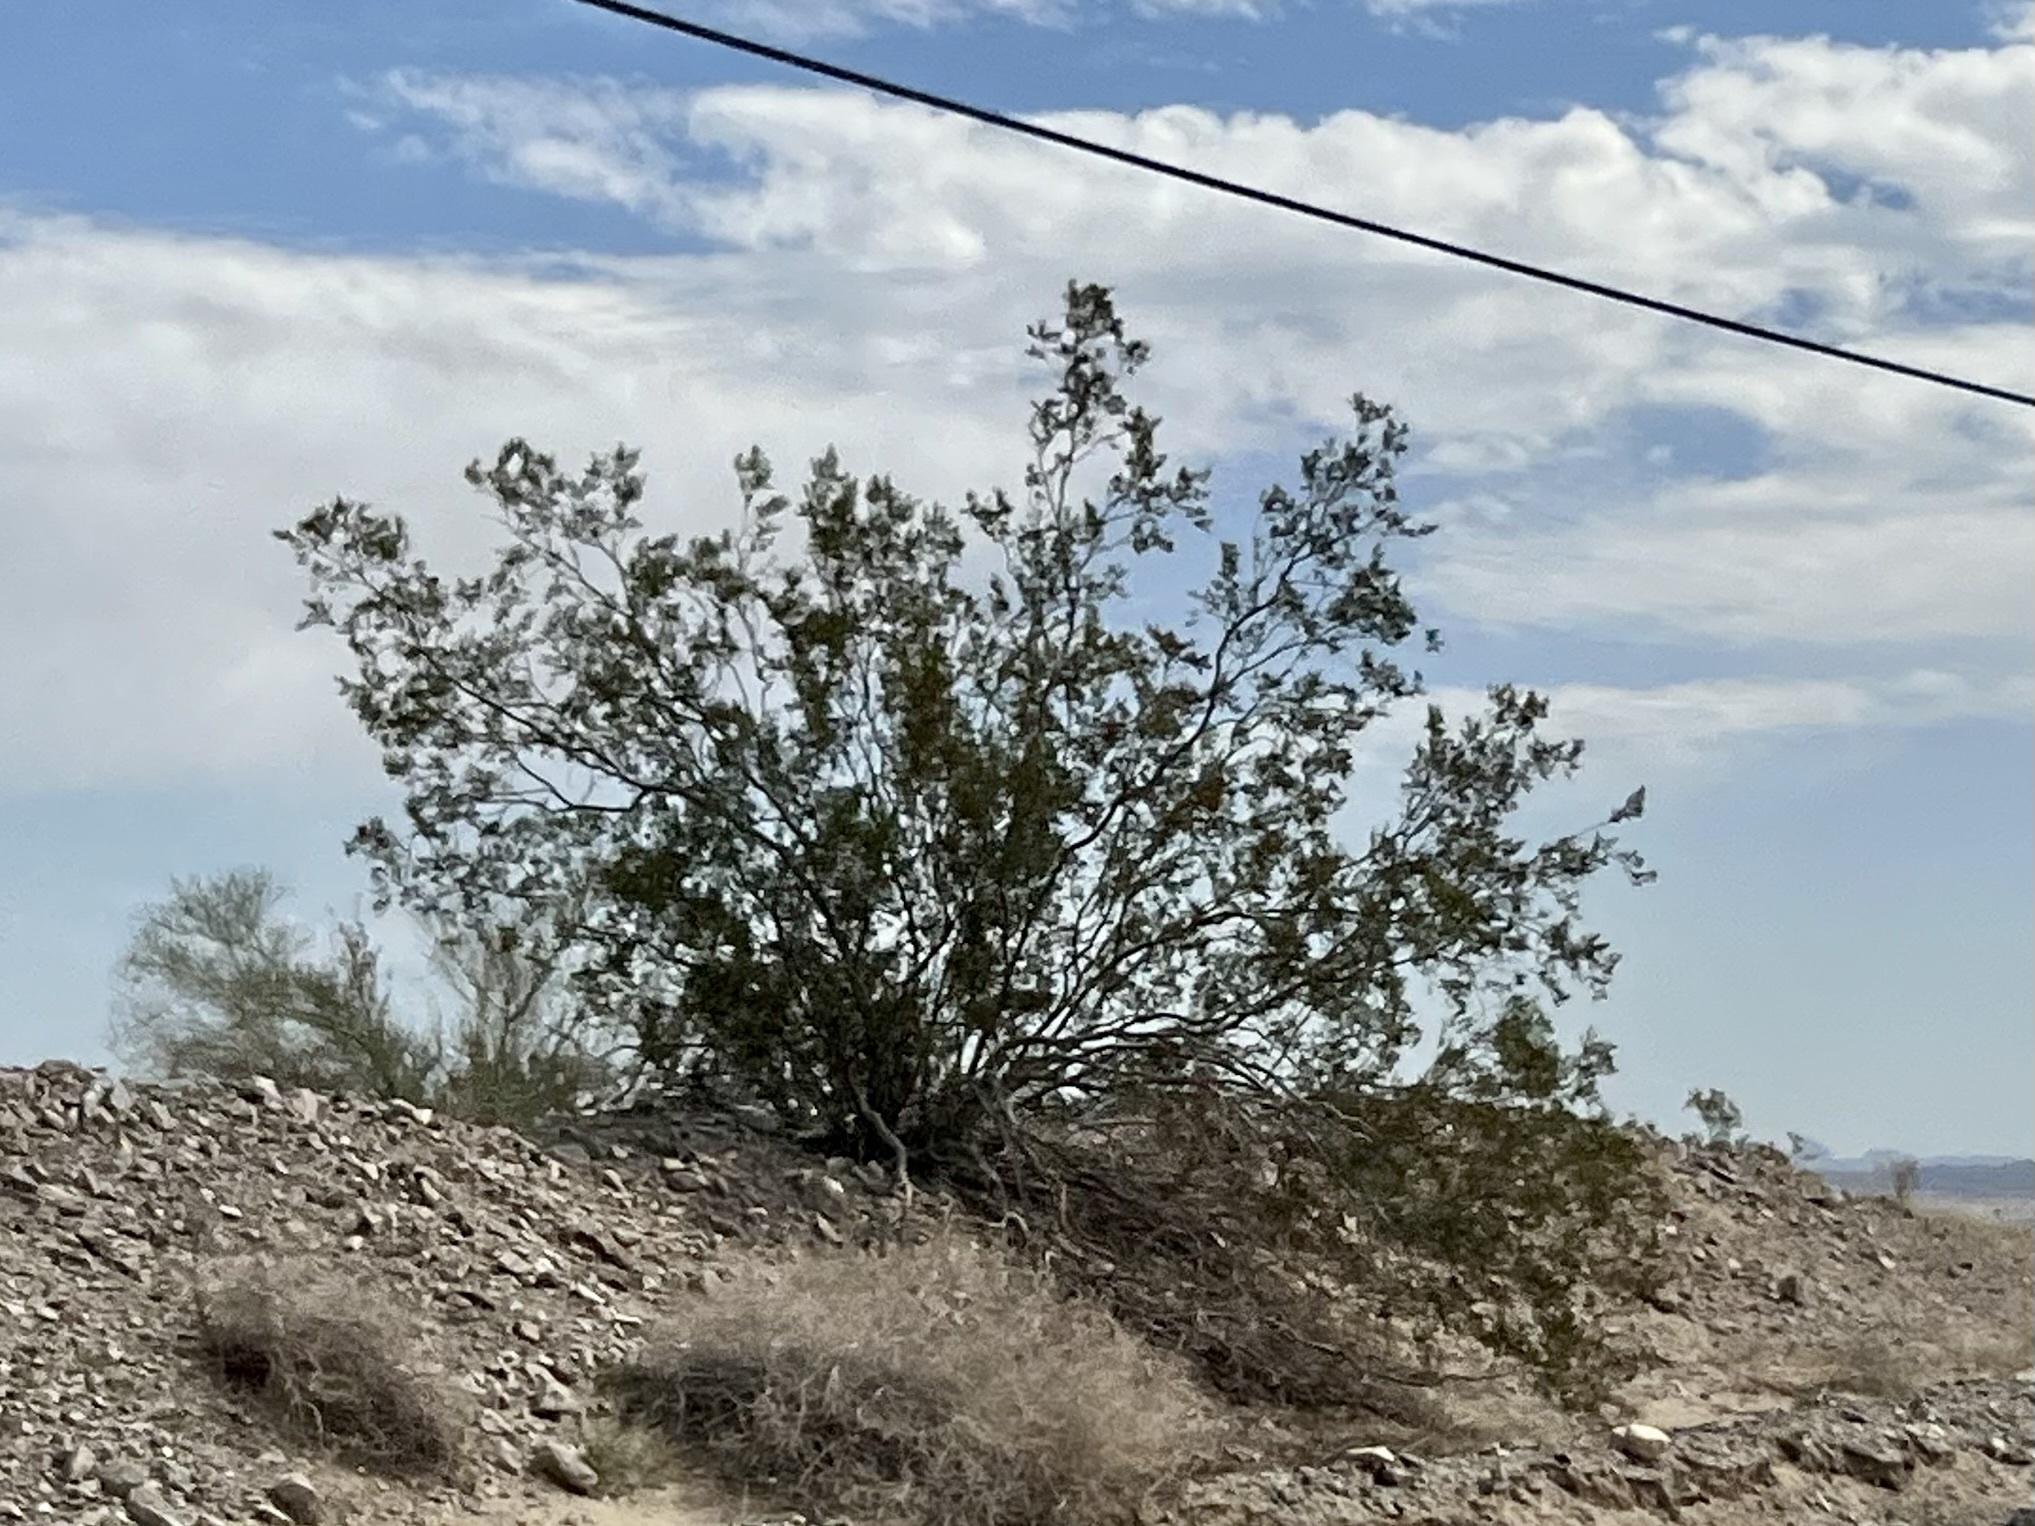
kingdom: Plantae
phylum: Tracheophyta
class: Magnoliopsida
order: Zygophyllales
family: Zygophyllaceae
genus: Larrea
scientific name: Larrea tridentata
